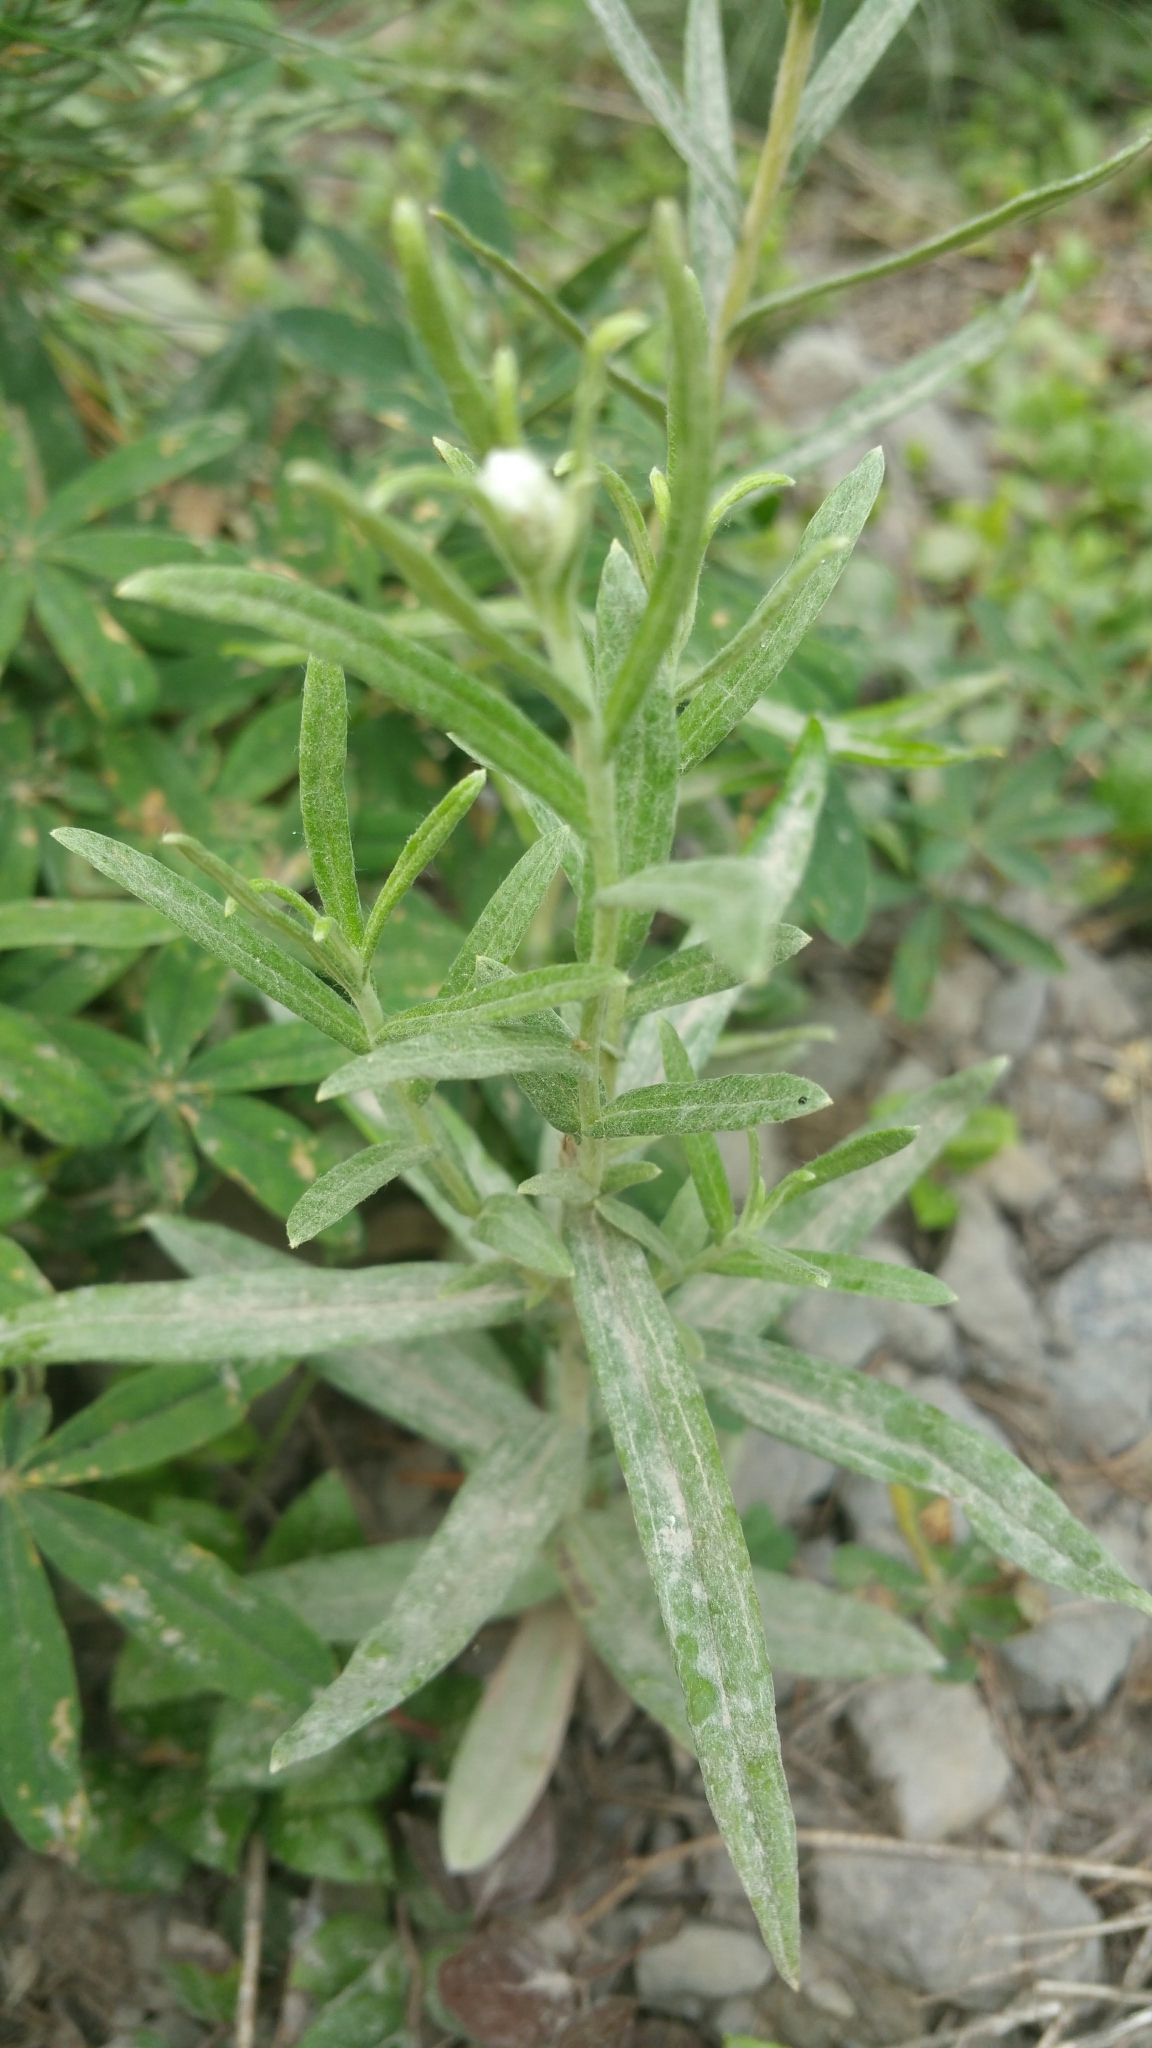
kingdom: Plantae
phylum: Tracheophyta
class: Magnoliopsida
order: Asterales
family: Asteraceae
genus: Anaphalis
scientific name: Anaphalis margaritacea
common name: Pearly everlasting
